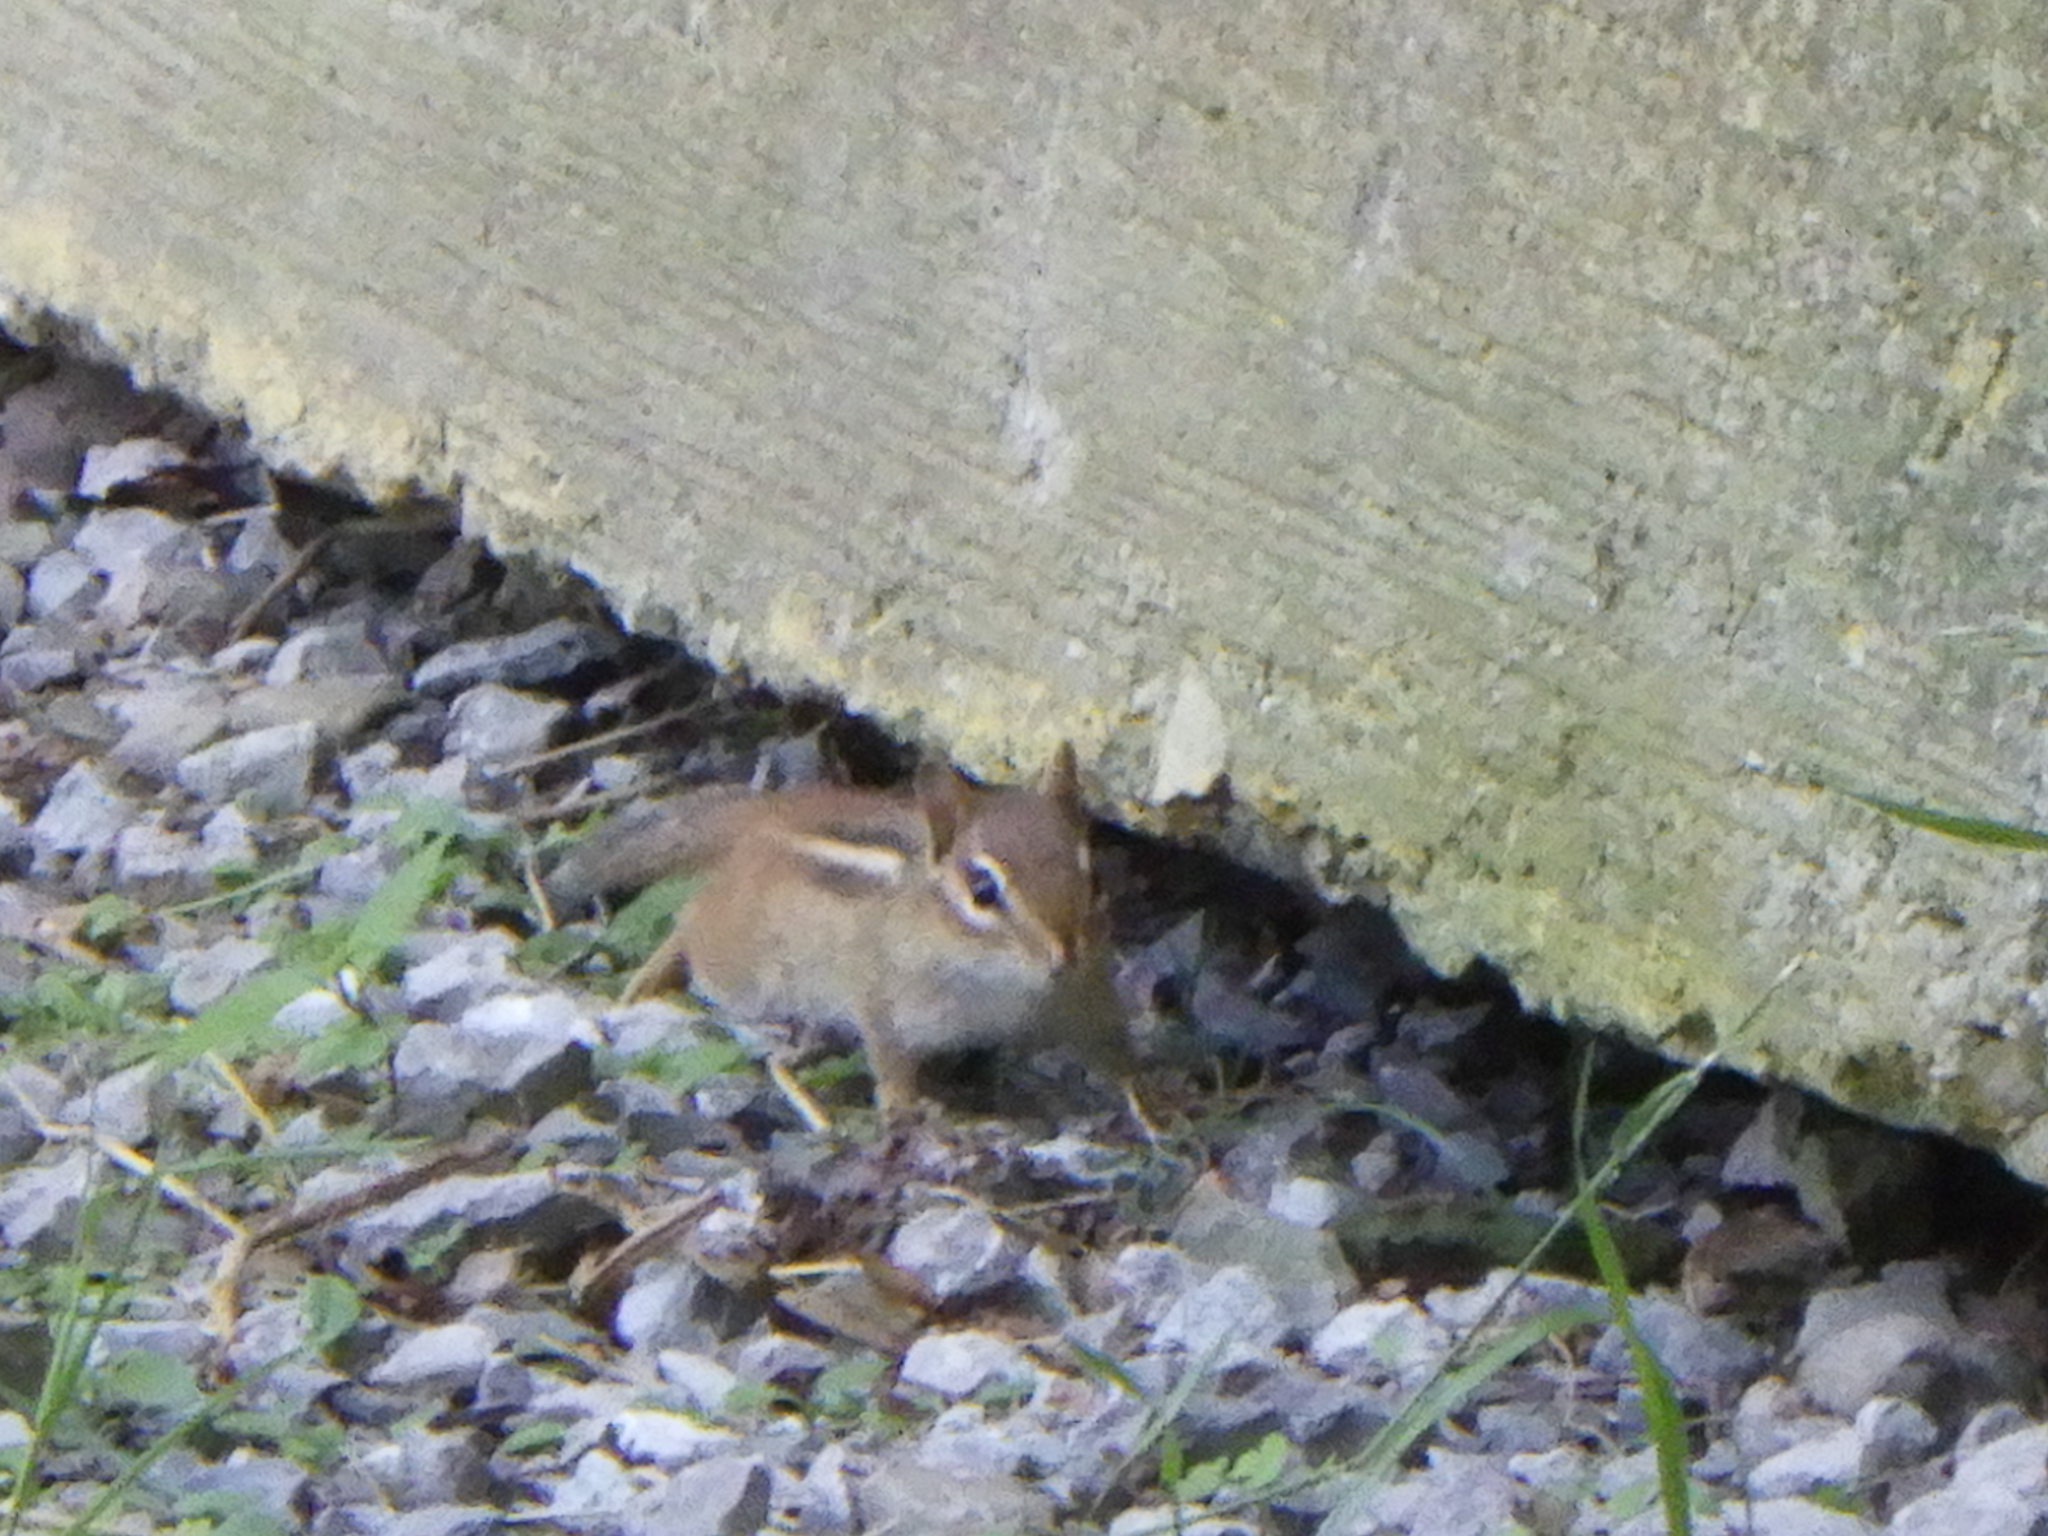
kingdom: Animalia
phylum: Chordata
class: Mammalia
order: Rodentia
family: Sciuridae
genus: Tamias
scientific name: Tamias striatus
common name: Eastern chipmunk
